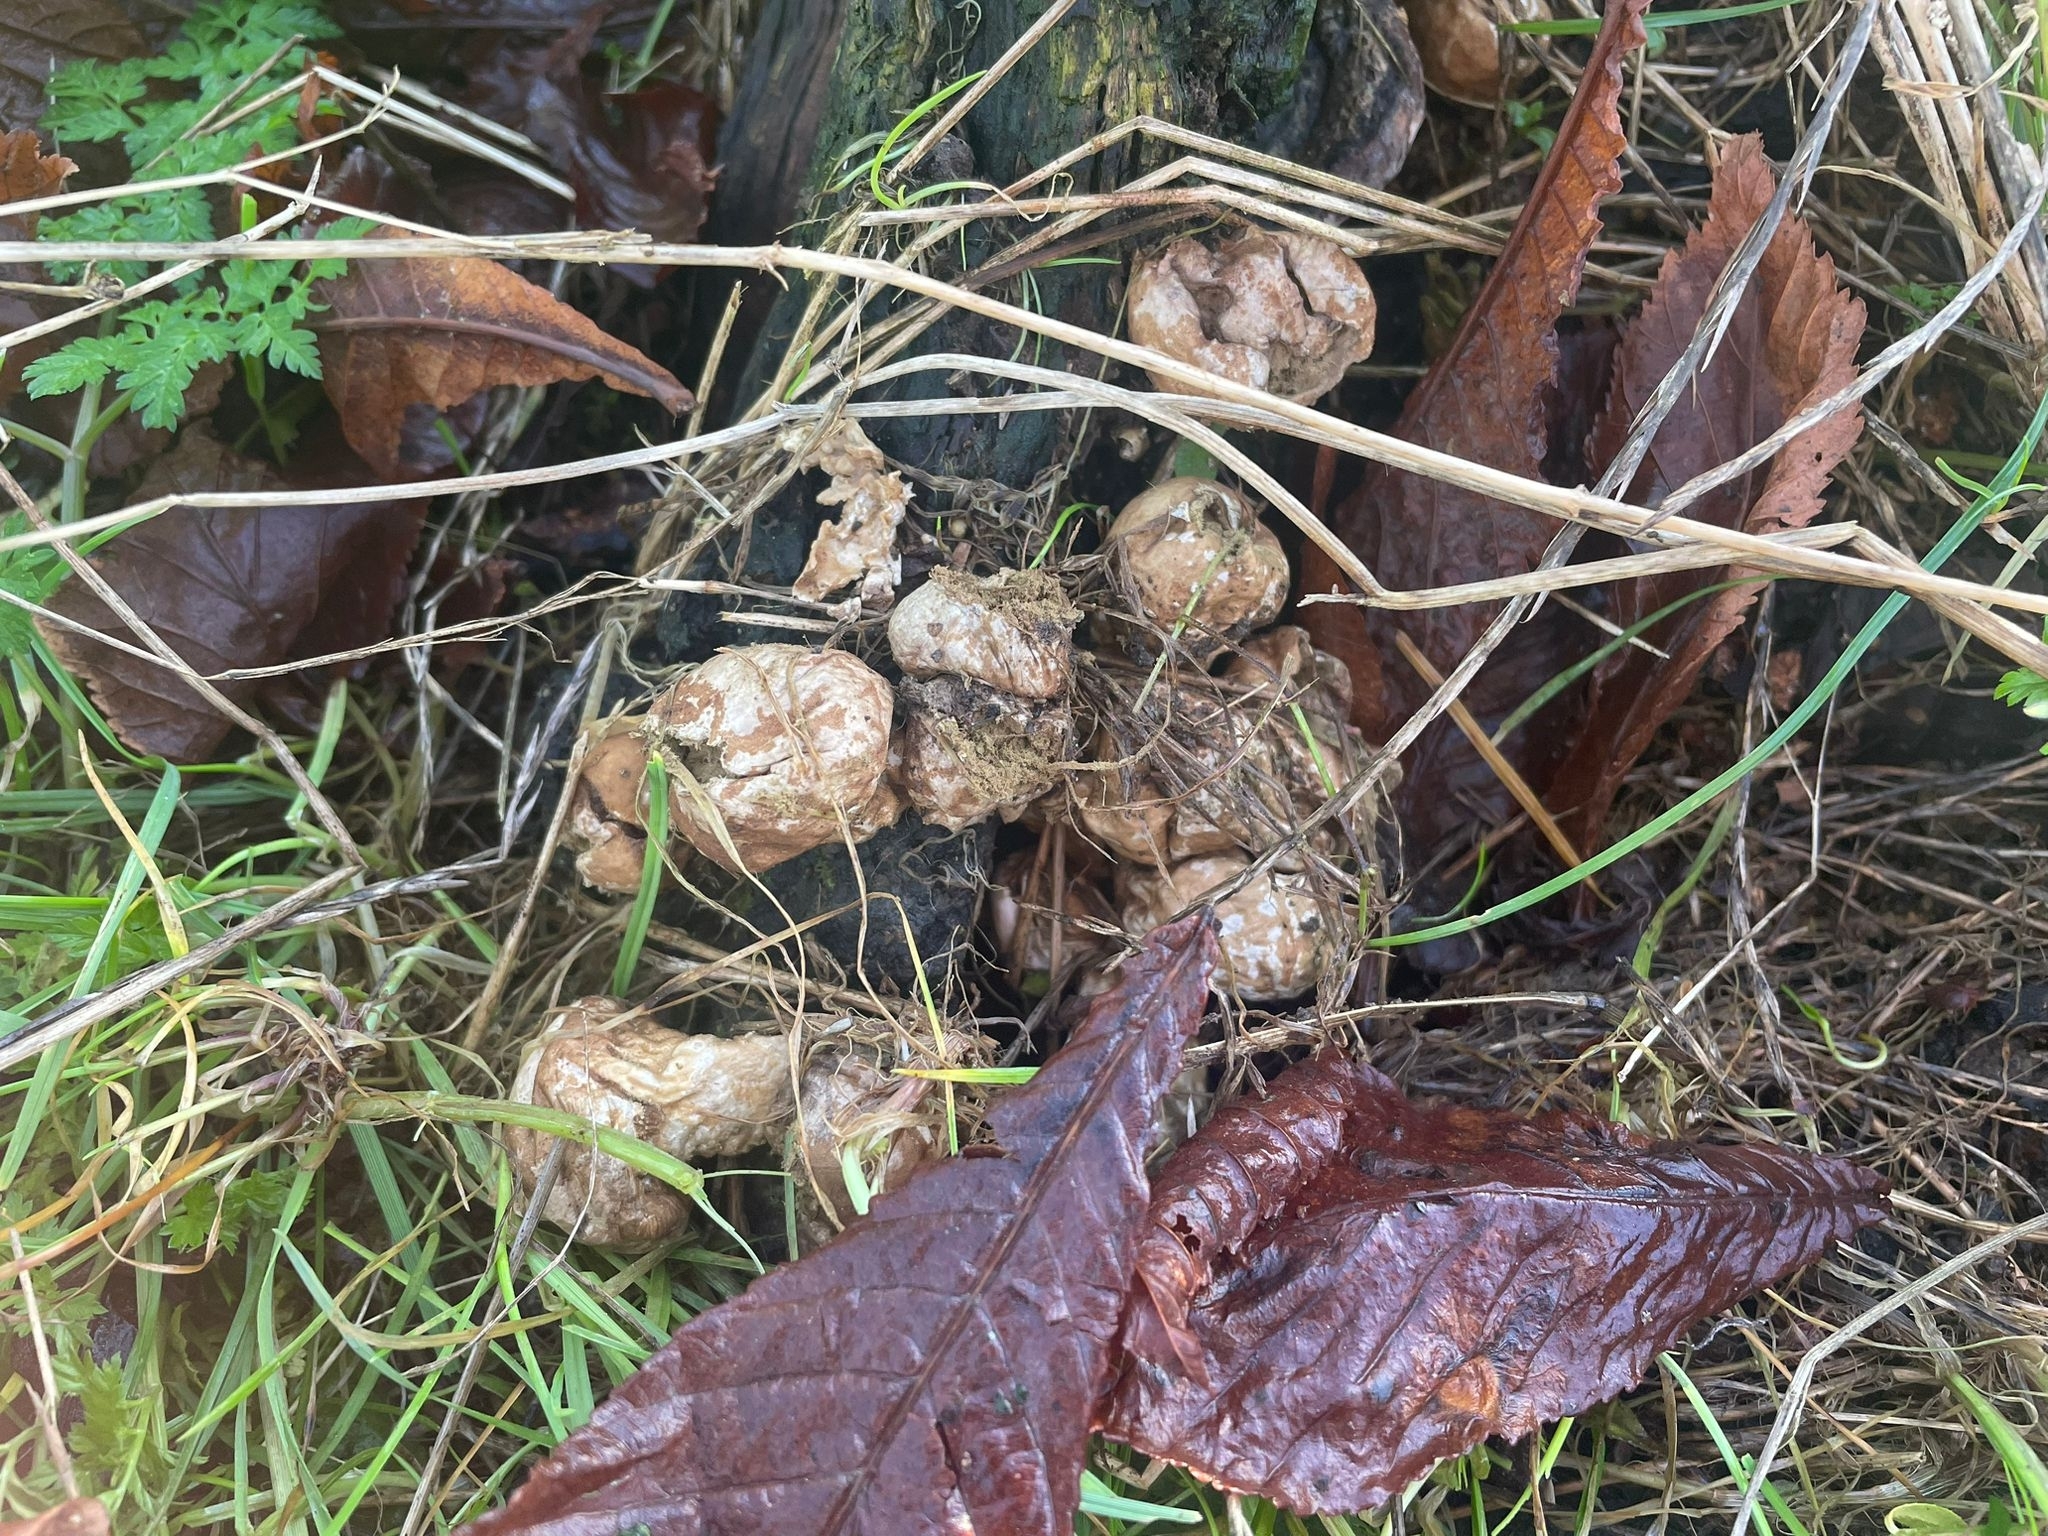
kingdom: Fungi
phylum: Basidiomycota
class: Agaricomycetes
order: Agaricales
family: Lycoperdaceae
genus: Apioperdon
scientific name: Apioperdon pyriforme
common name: Pear-shaped puffball
